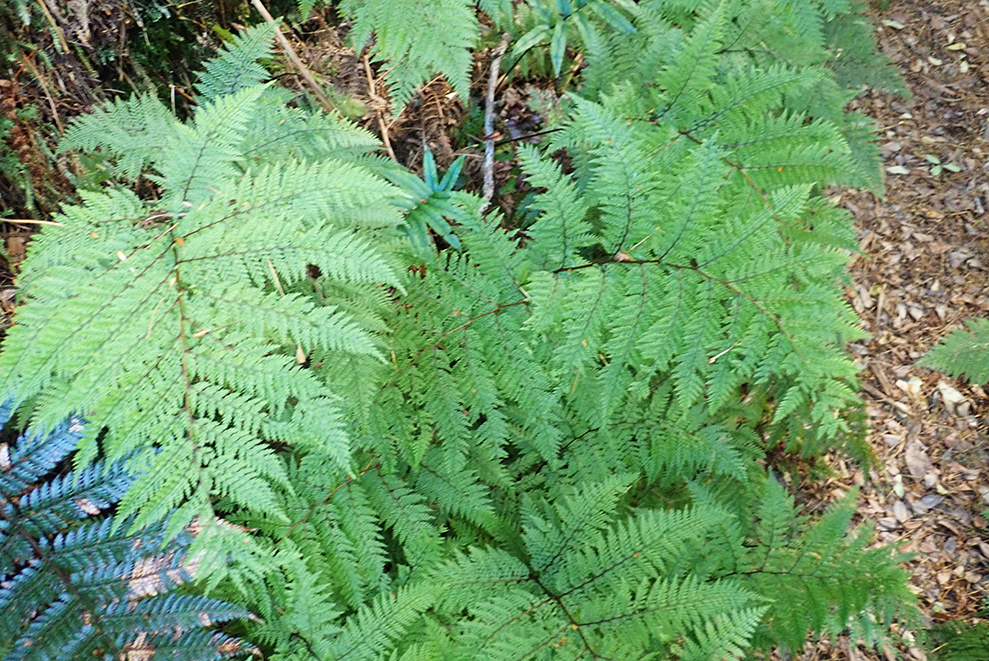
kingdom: Plantae
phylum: Tracheophyta
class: Polypodiopsida
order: Polypodiales
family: Dennstaedtiaceae
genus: Dennstaedtia
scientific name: Dennstaedtia novae-zelandiae
